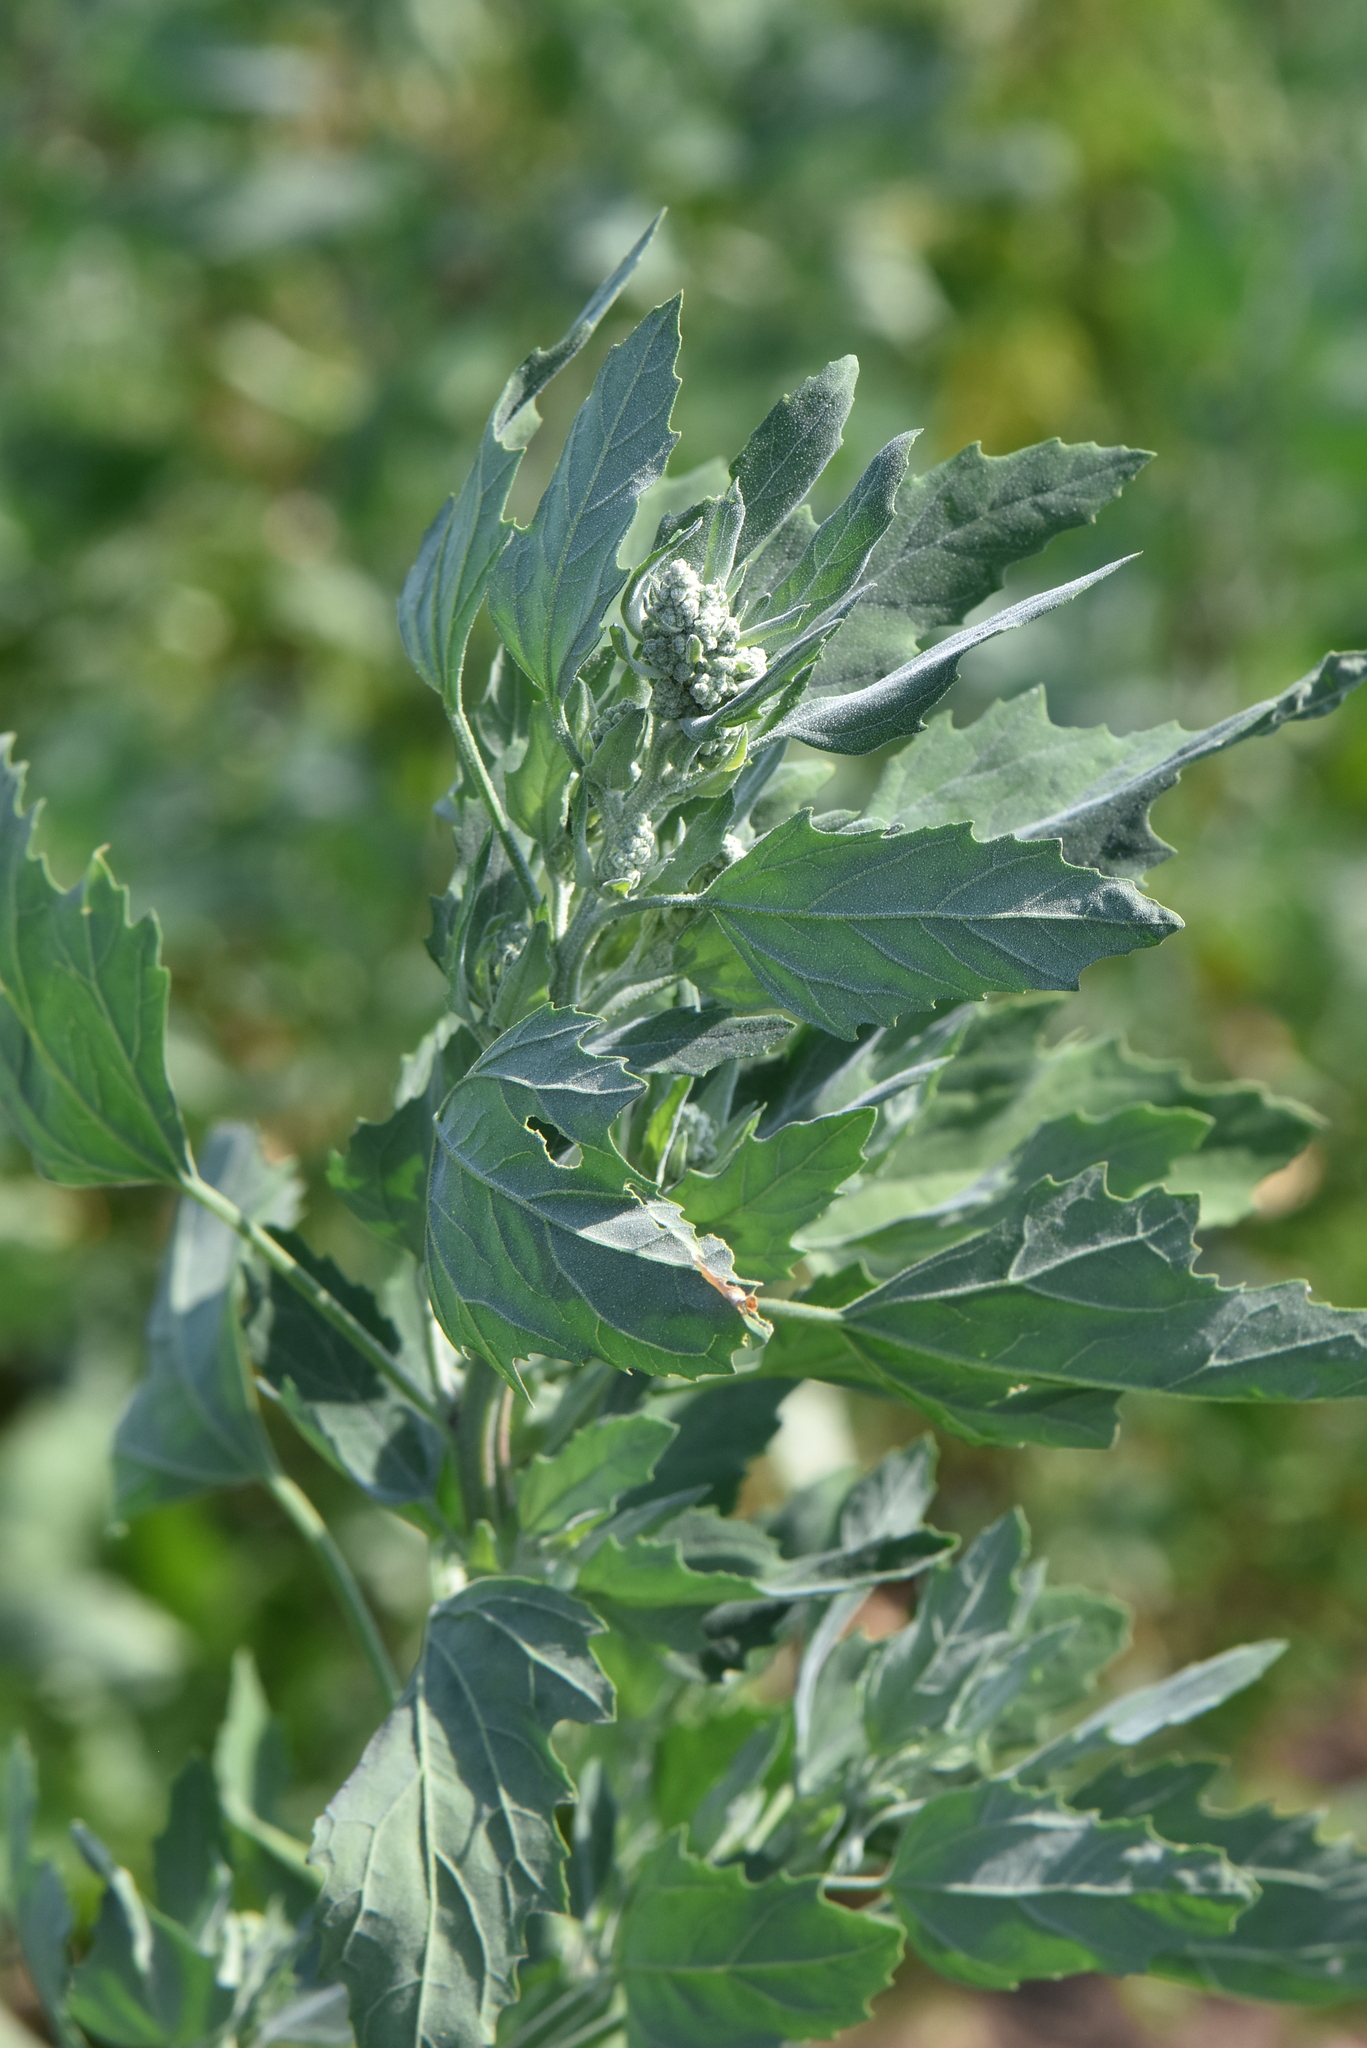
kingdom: Plantae
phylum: Tracheophyta
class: Magnoliopsida
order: Caryophyllales
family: Amaranthaceae
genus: Chenopodium
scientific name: Chenopodium album
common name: Fat-hen
